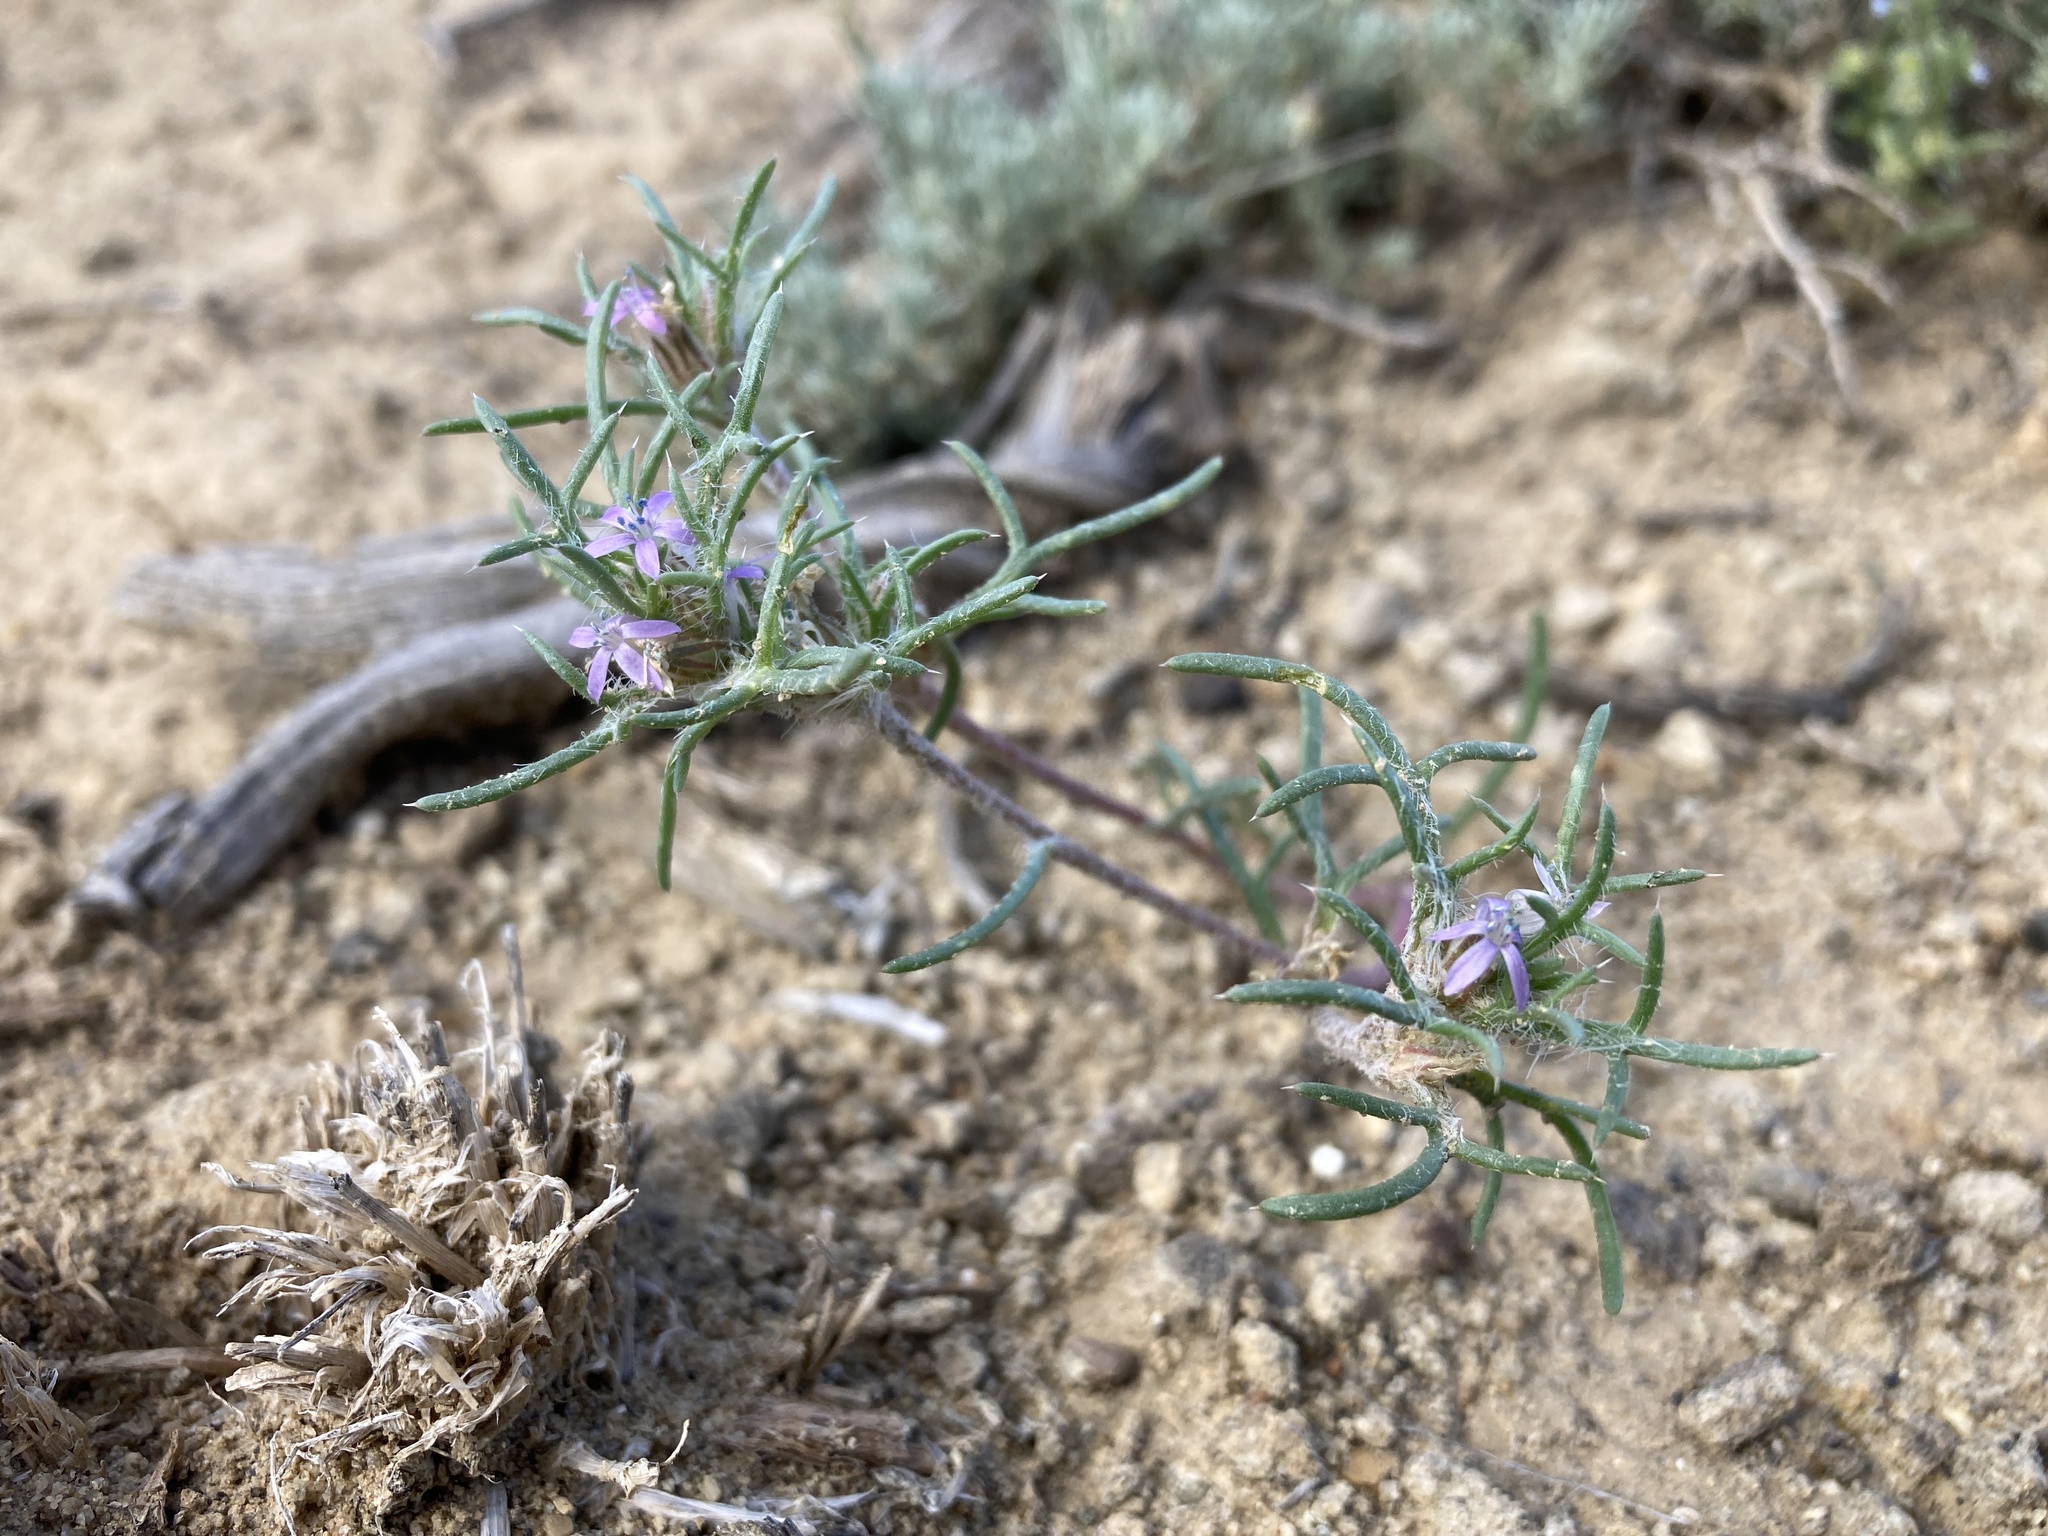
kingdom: Plantae
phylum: Tracheophyta
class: Magnoliopsida
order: Ericales
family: Polemoniaceae
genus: Ipomopsis
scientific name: Ipomopsis pumila
